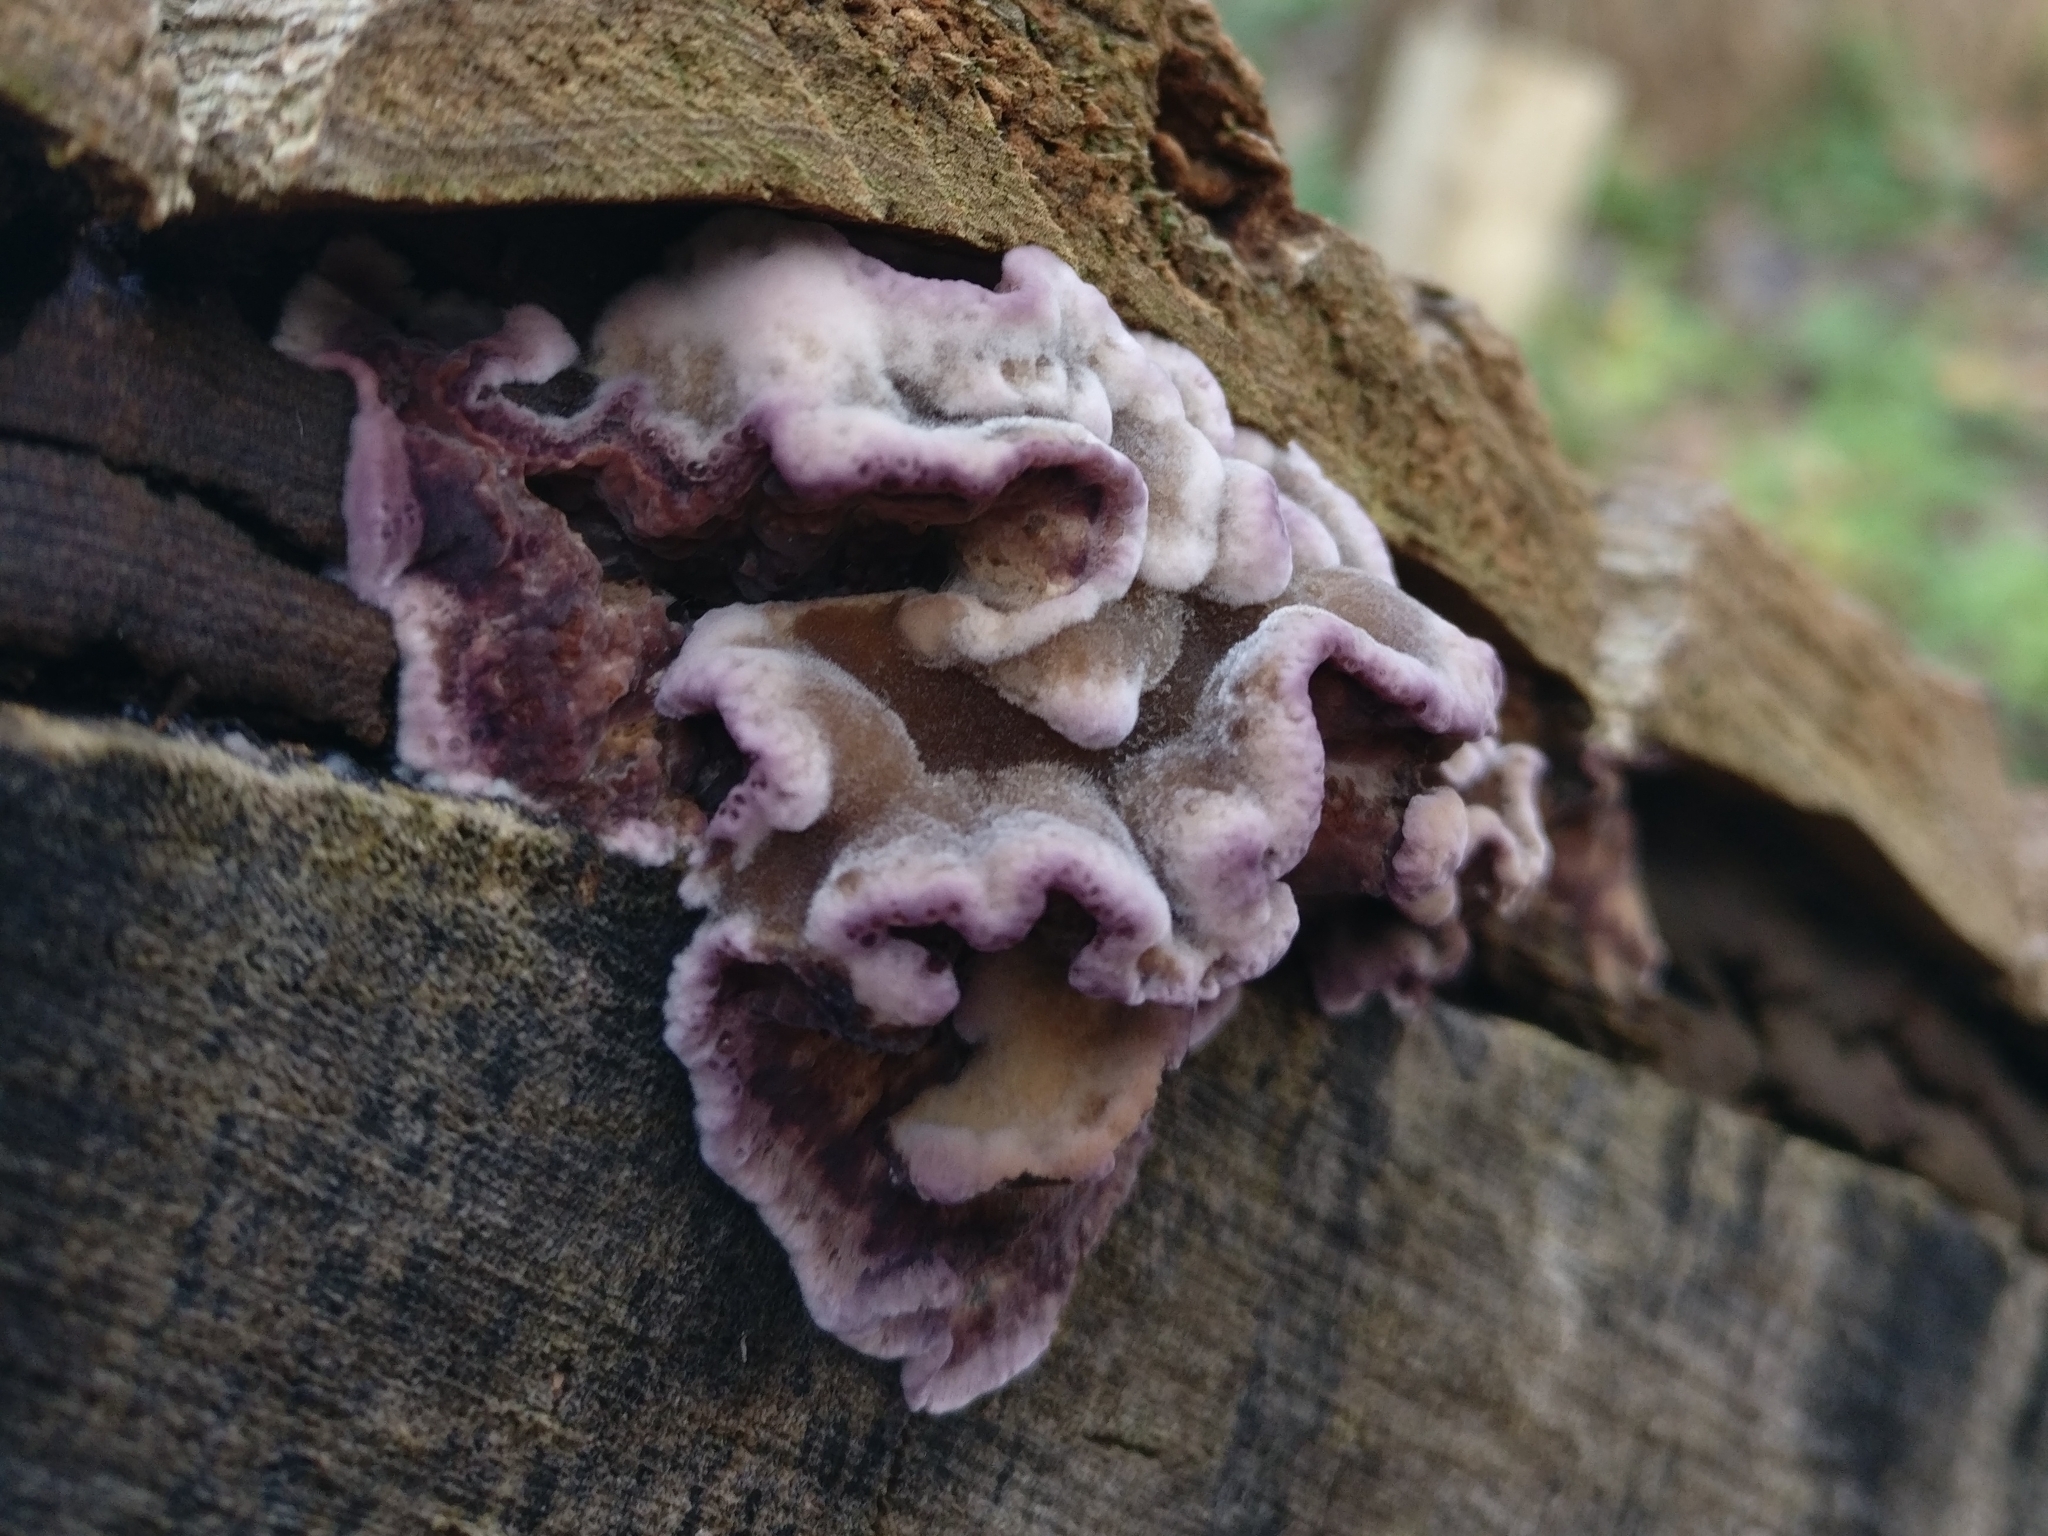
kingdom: Fungi
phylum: Basidiomycota
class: Agaricomycetes
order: Agaricales
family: Cyphellaceae
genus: Chondrostereum
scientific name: Chondrostereum purpureum
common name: Silver leaf disease
